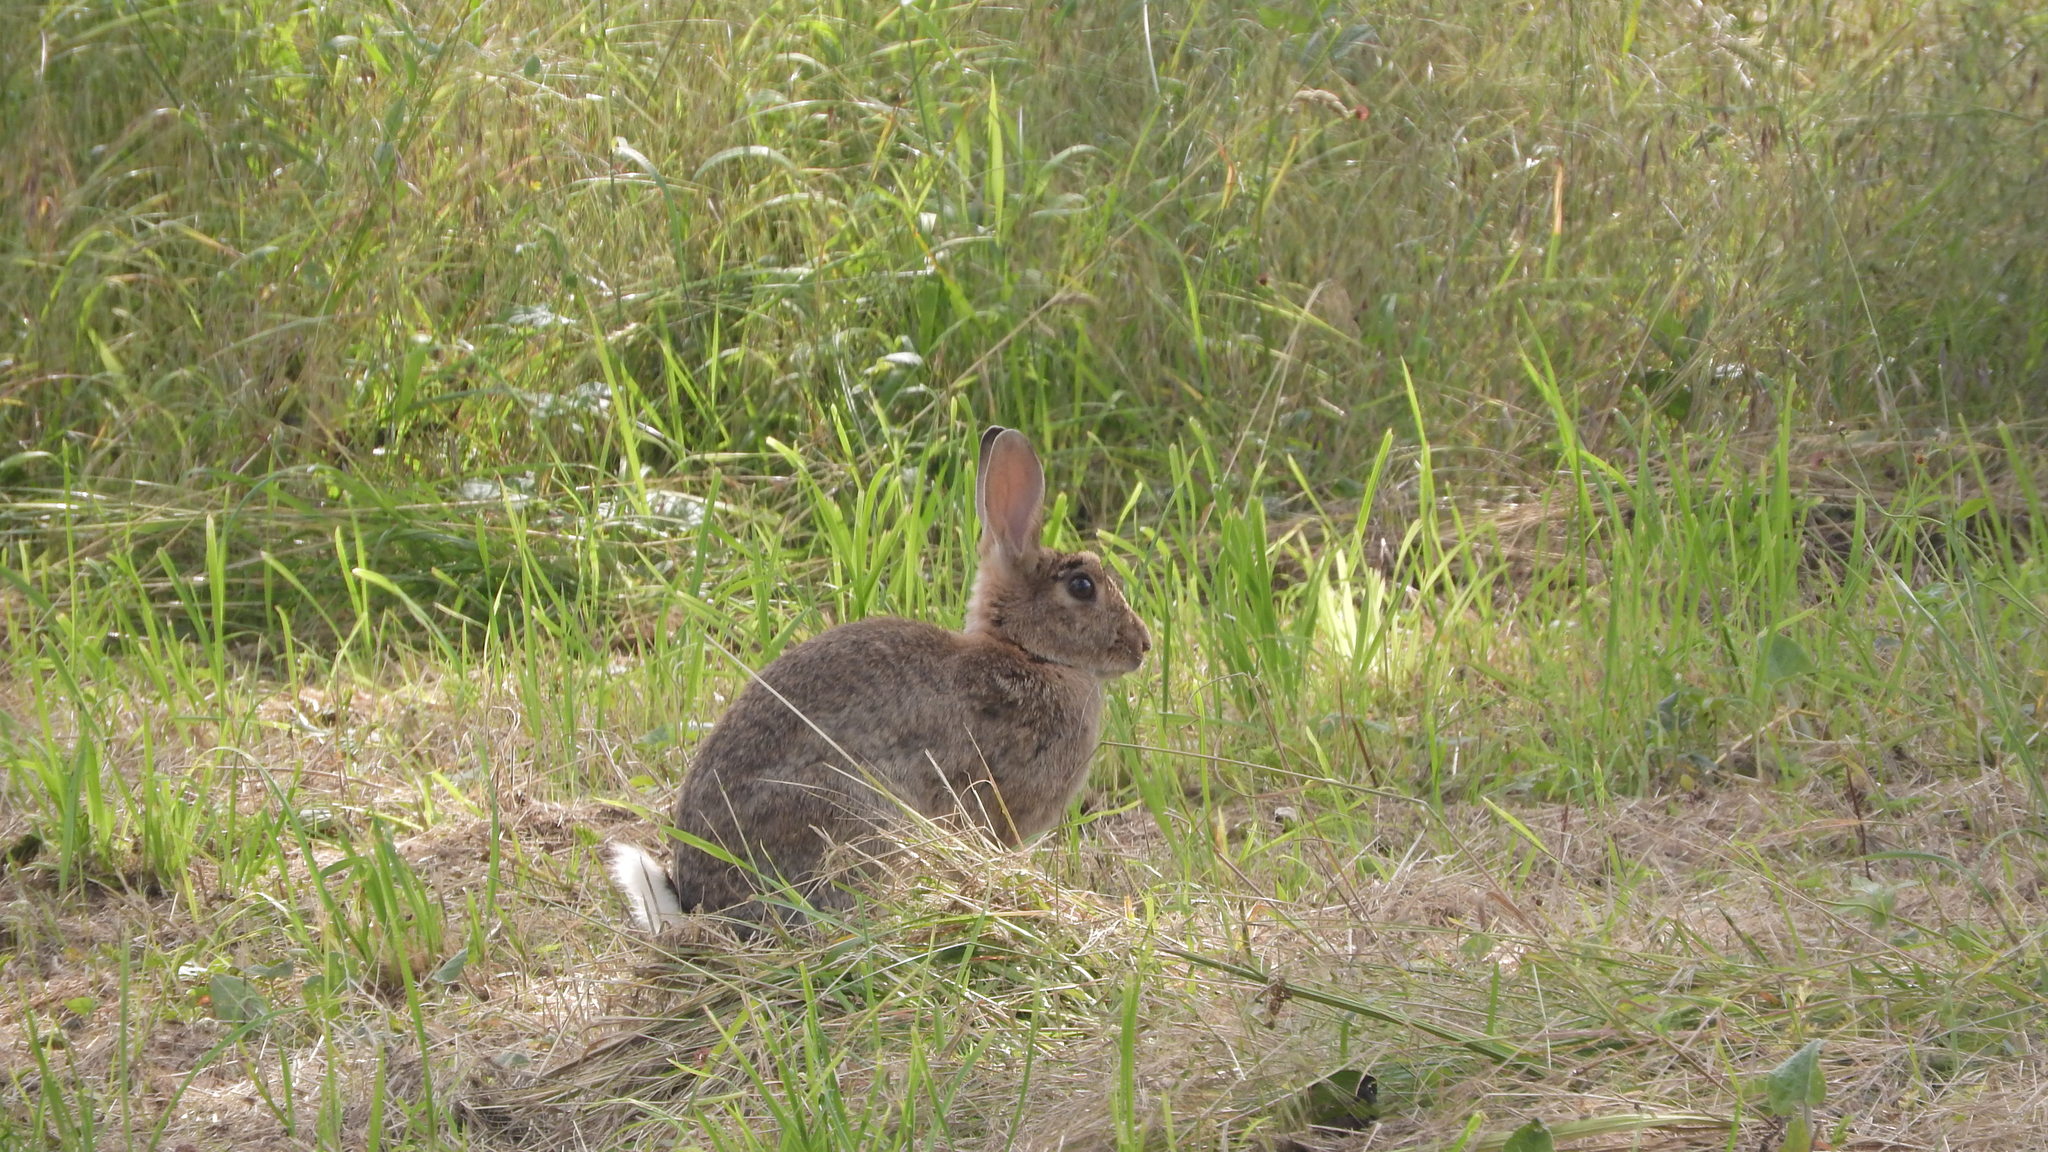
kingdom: Animalia
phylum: Chordata
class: Mammalia
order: Lagomorpha
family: Leporidae
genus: Oryctolagus
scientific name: Oryctolagus cuniculus
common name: European rabbit
